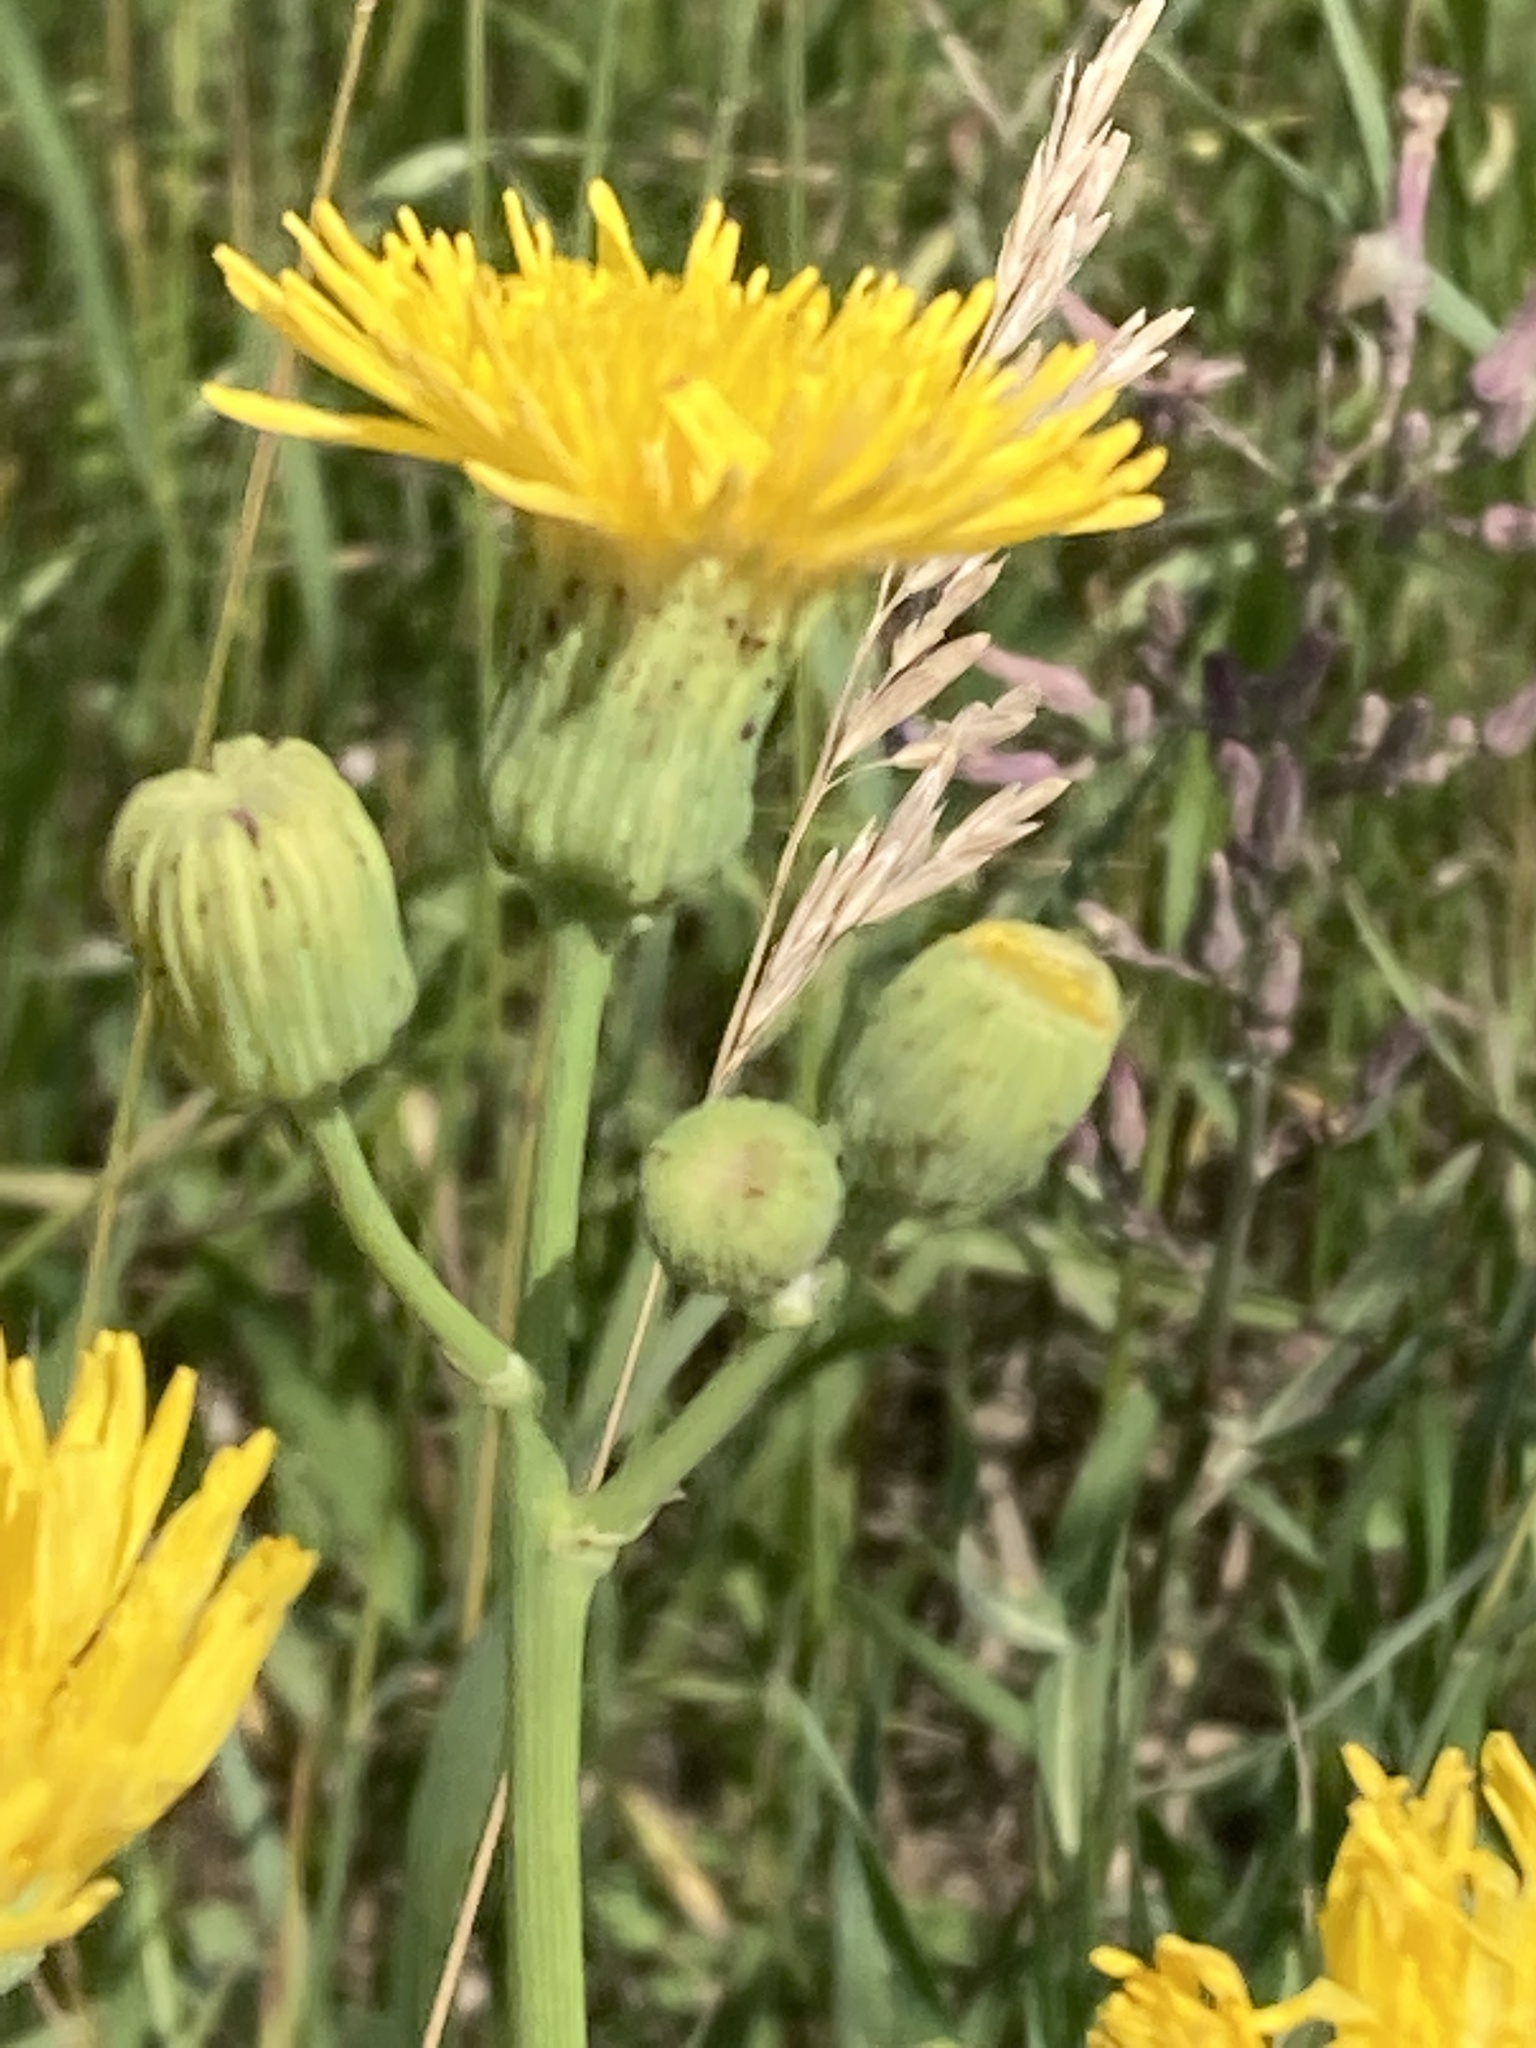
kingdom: Plantae
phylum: Tracheophyta
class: Magnoliopsida
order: Asterales
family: Asteraceae
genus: Sonchus
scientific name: Sonchus arvensis
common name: Perennial sow-thistle
